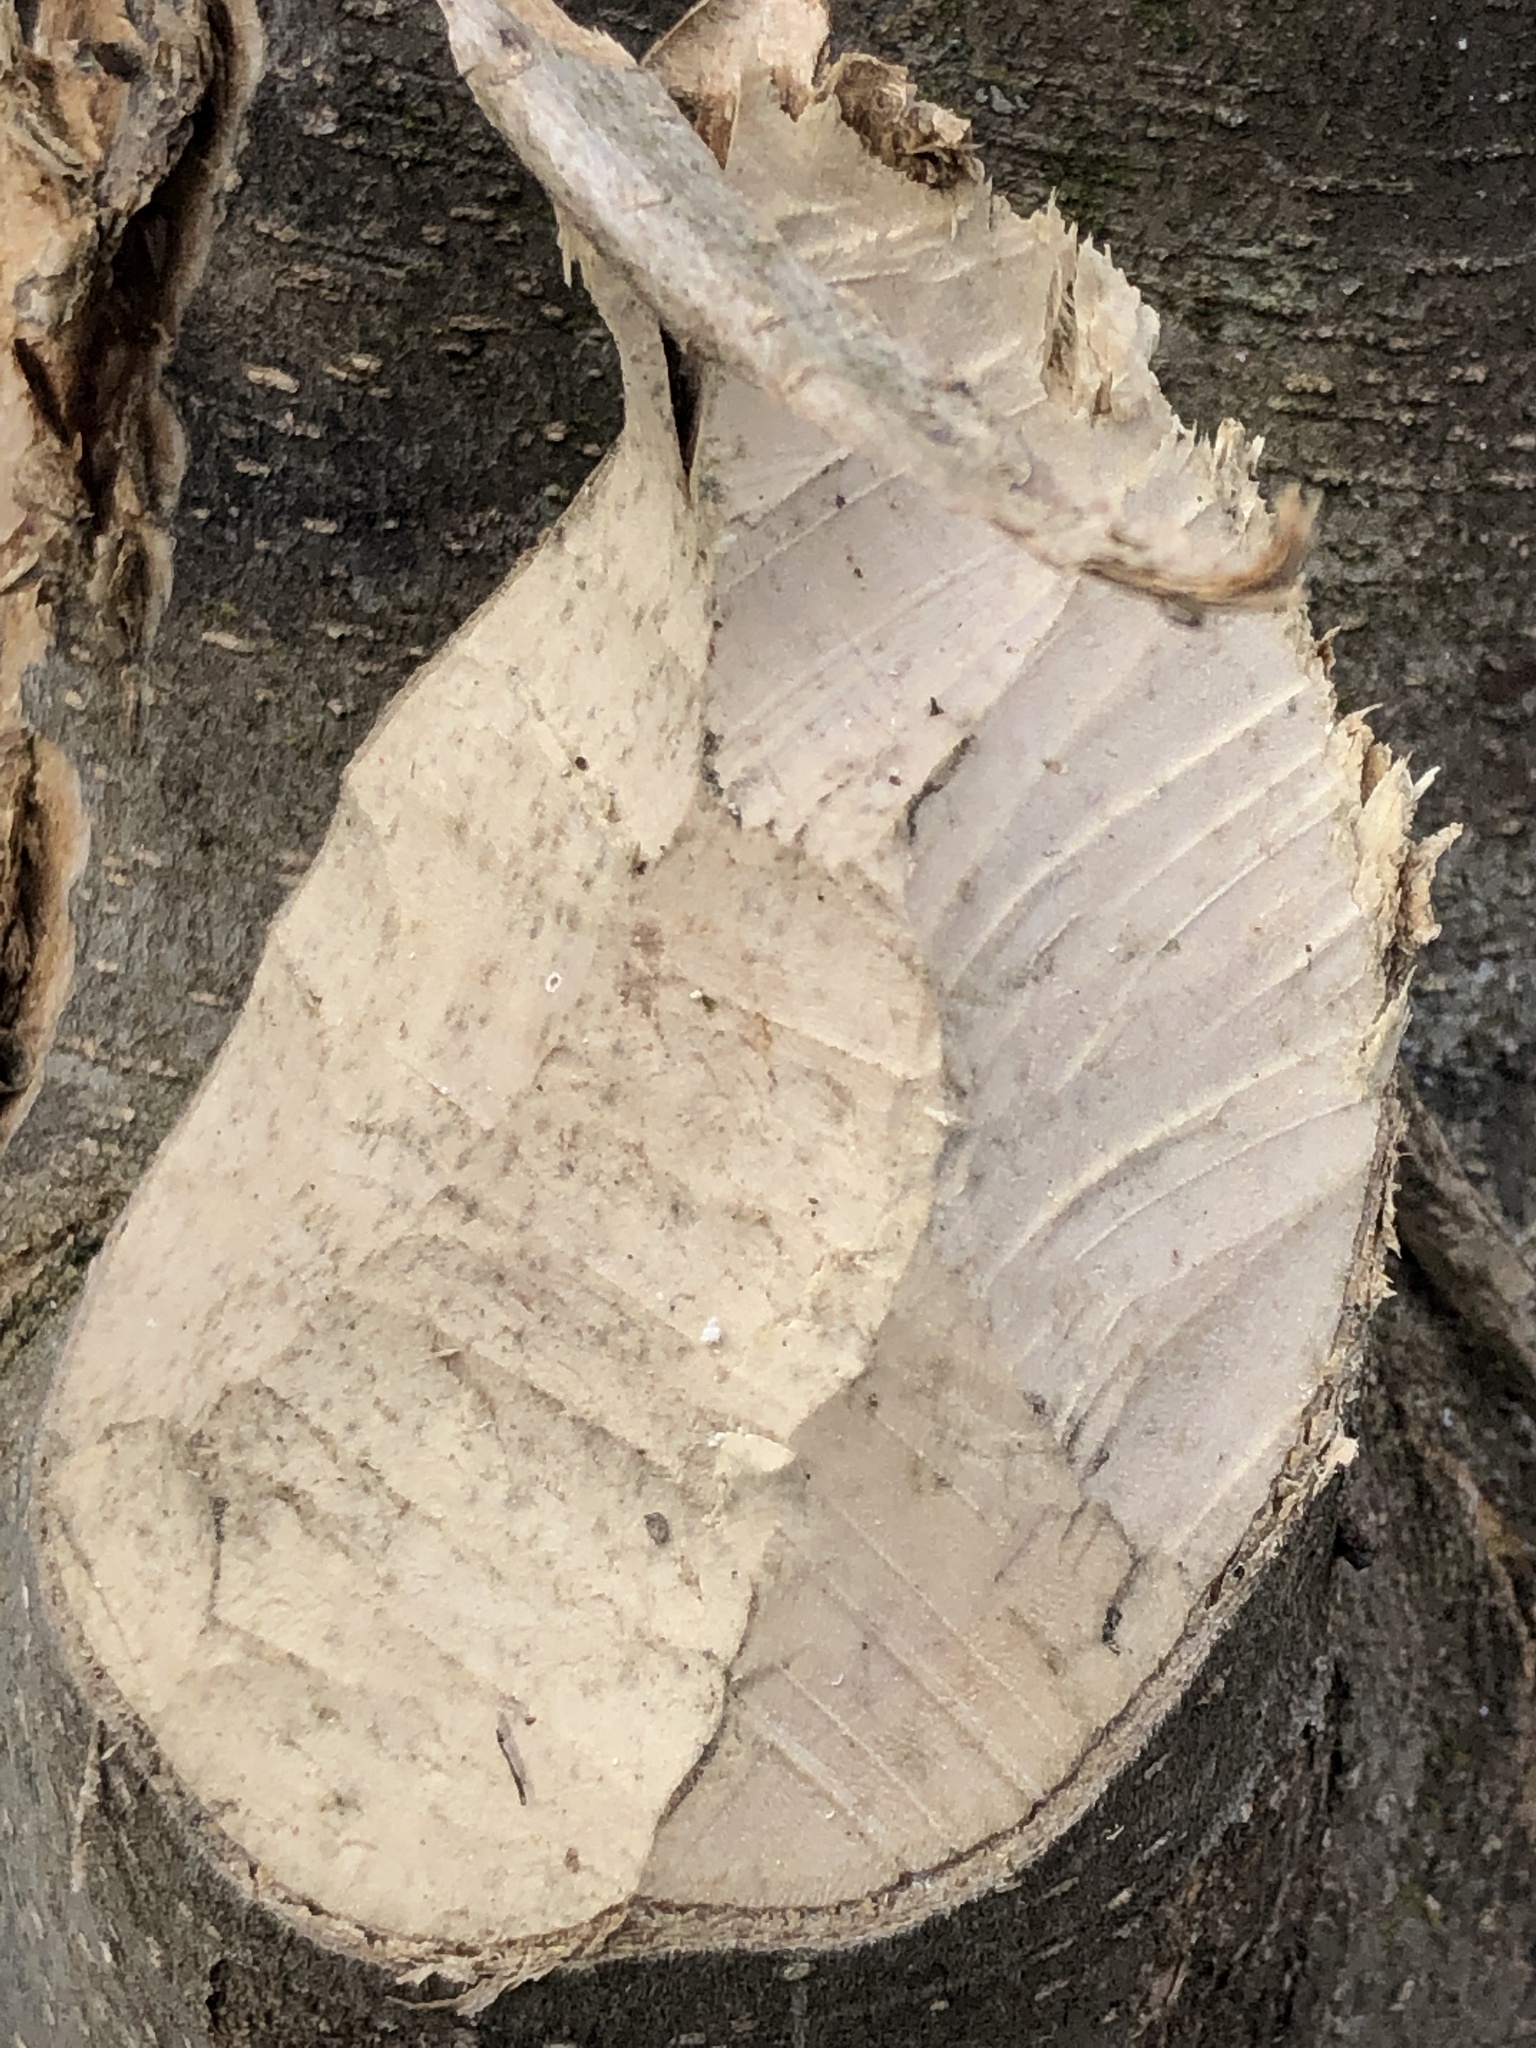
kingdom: Animalia
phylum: Chordata
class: Mammalia
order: Rodentia
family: Castoridae
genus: Castor
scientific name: Castor canadensis
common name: American beaver
